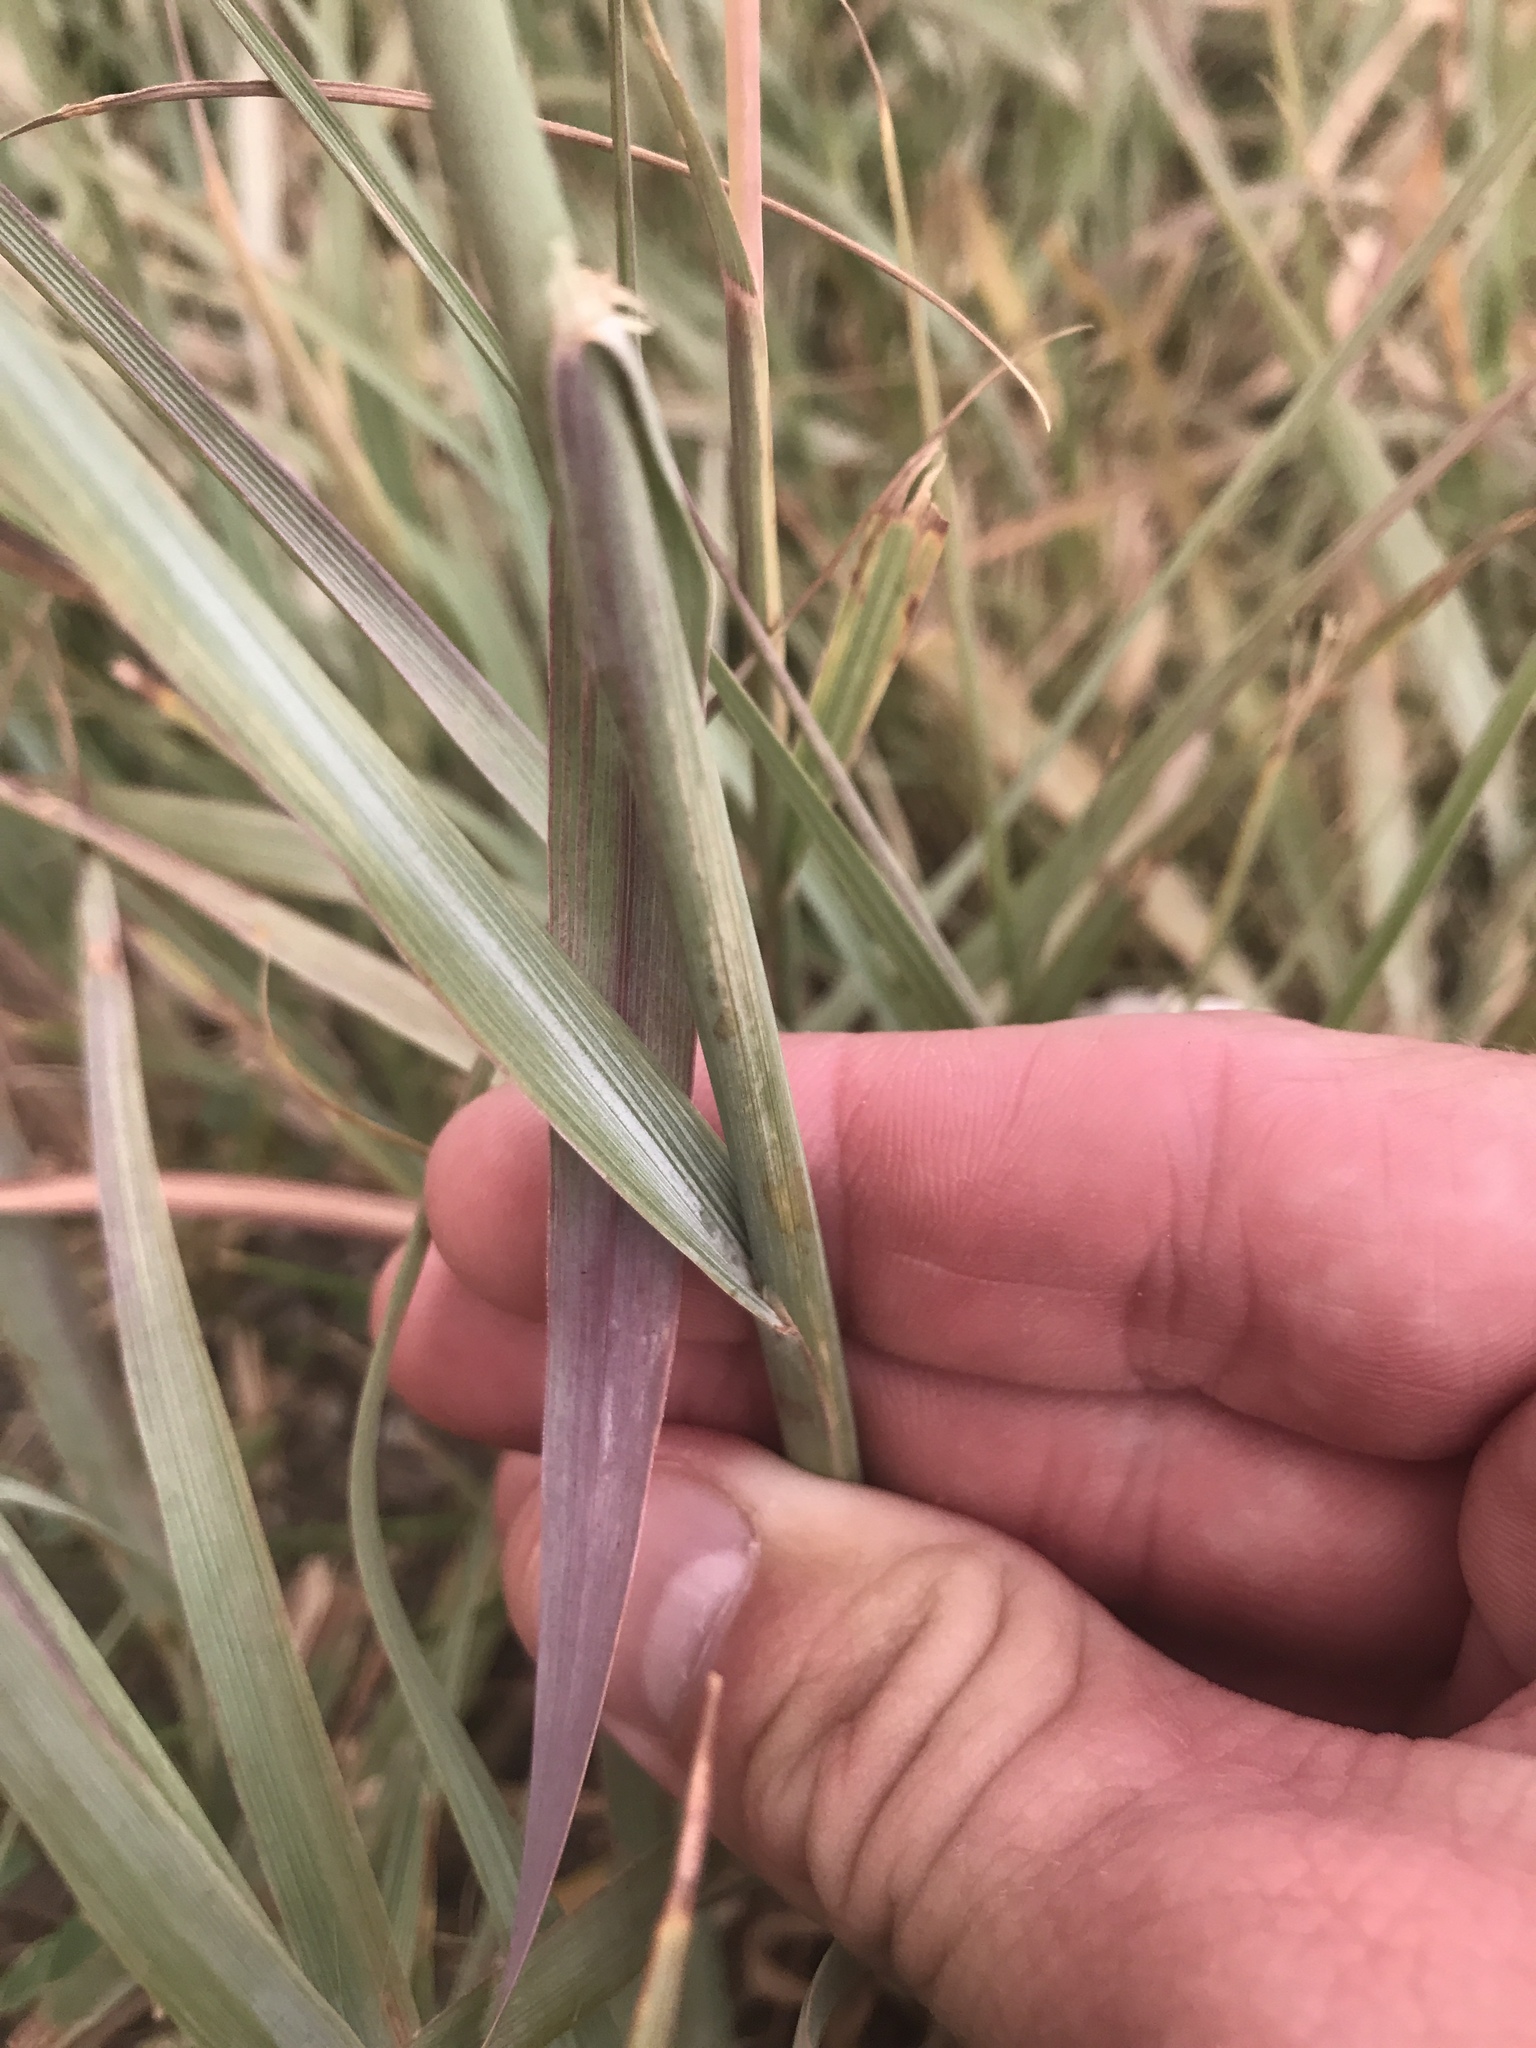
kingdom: Plantae
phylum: Tracheophyta
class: Liliopsida
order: Poales
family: Poaceae
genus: Andropogon
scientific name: Andropogon gerardi
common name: Big bluestem
